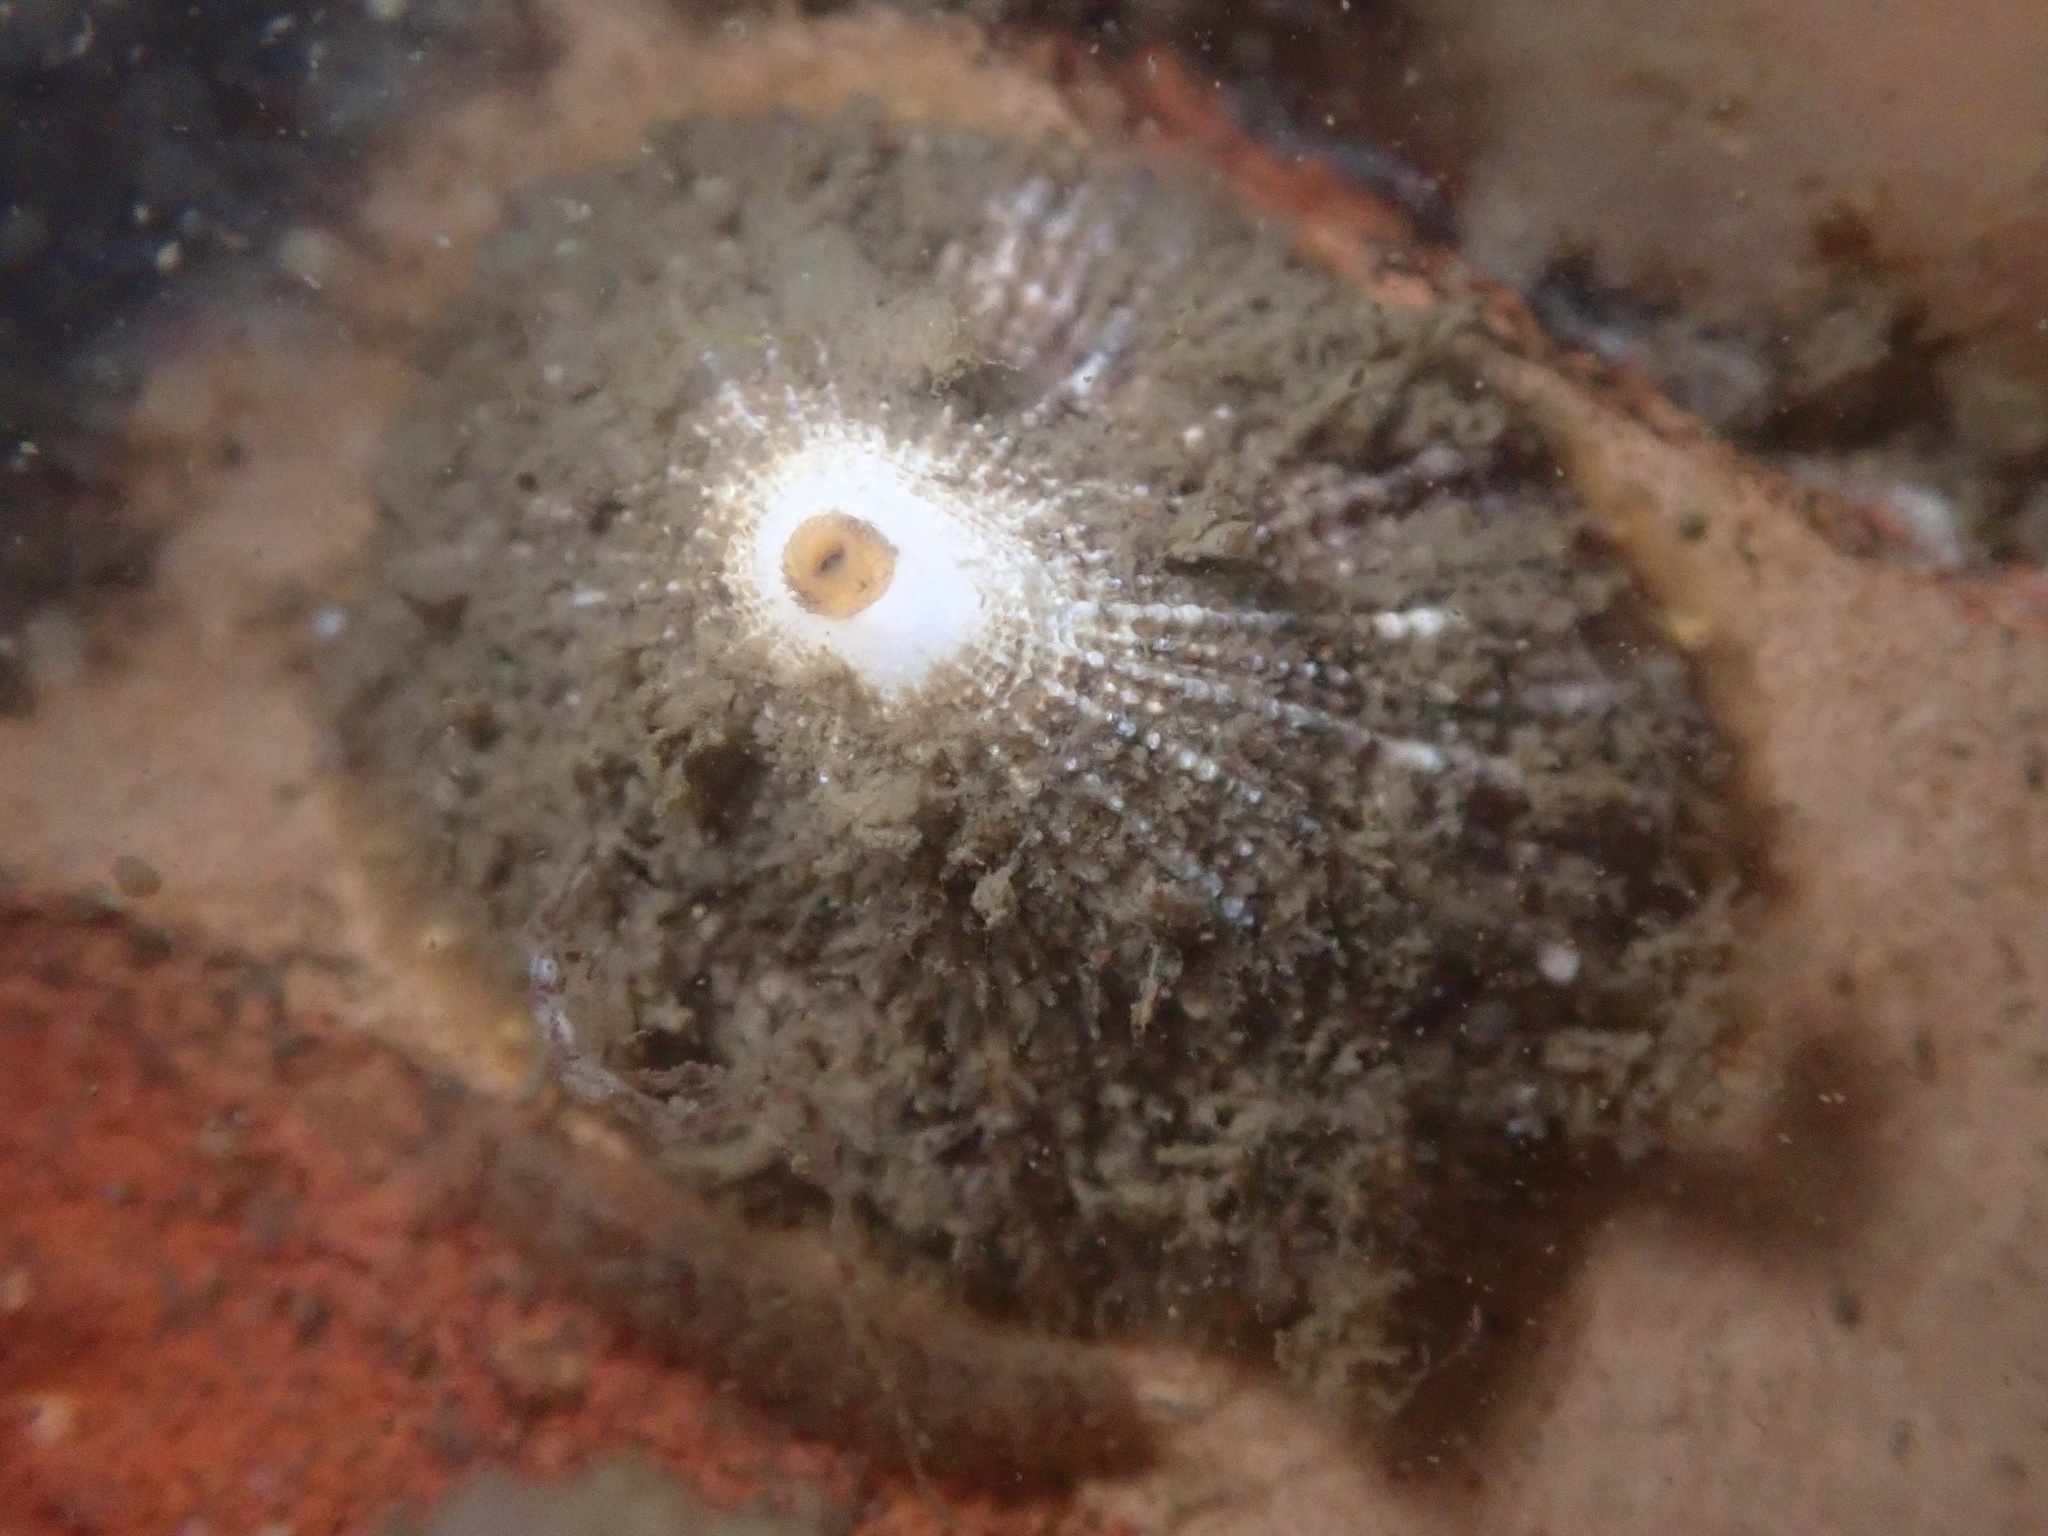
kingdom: Animalia
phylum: Mollusca
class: Gastropoda
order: Lepetellida
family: Fissurellidae
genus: Diodora
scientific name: Diodora aspera
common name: Rough keyhole limpet
